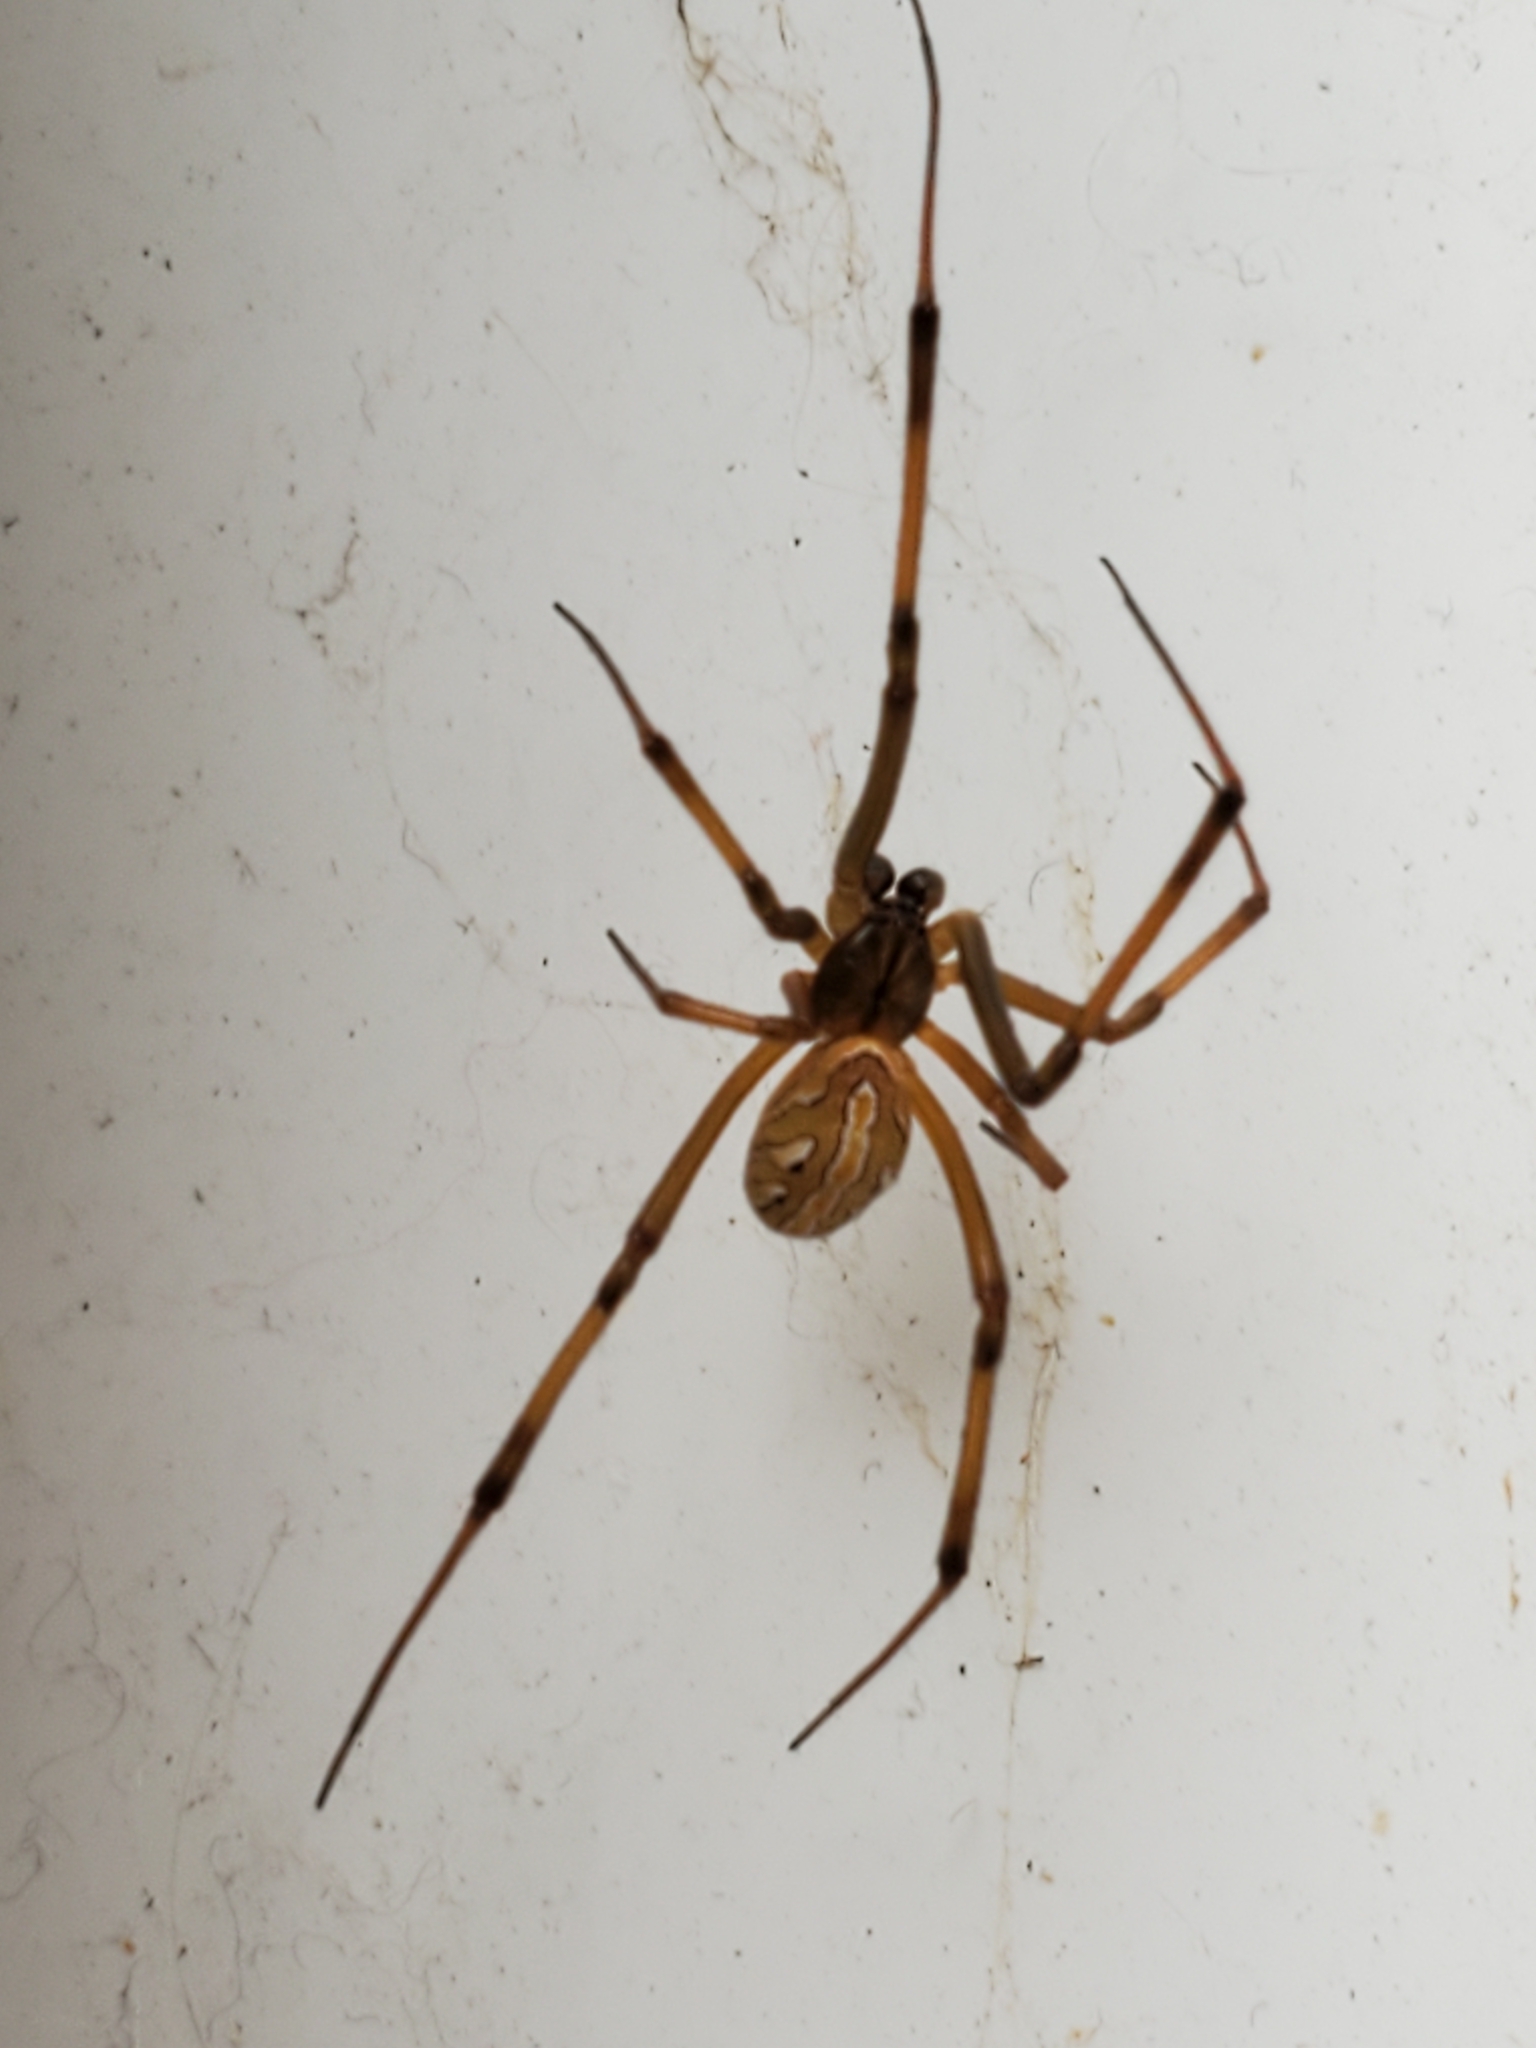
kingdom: Animalia
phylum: Arthropoda
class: Arachnida
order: Araneae
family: Theridiidae
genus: Latrodectus
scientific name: Latrodectus hesperus
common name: Western black widow
